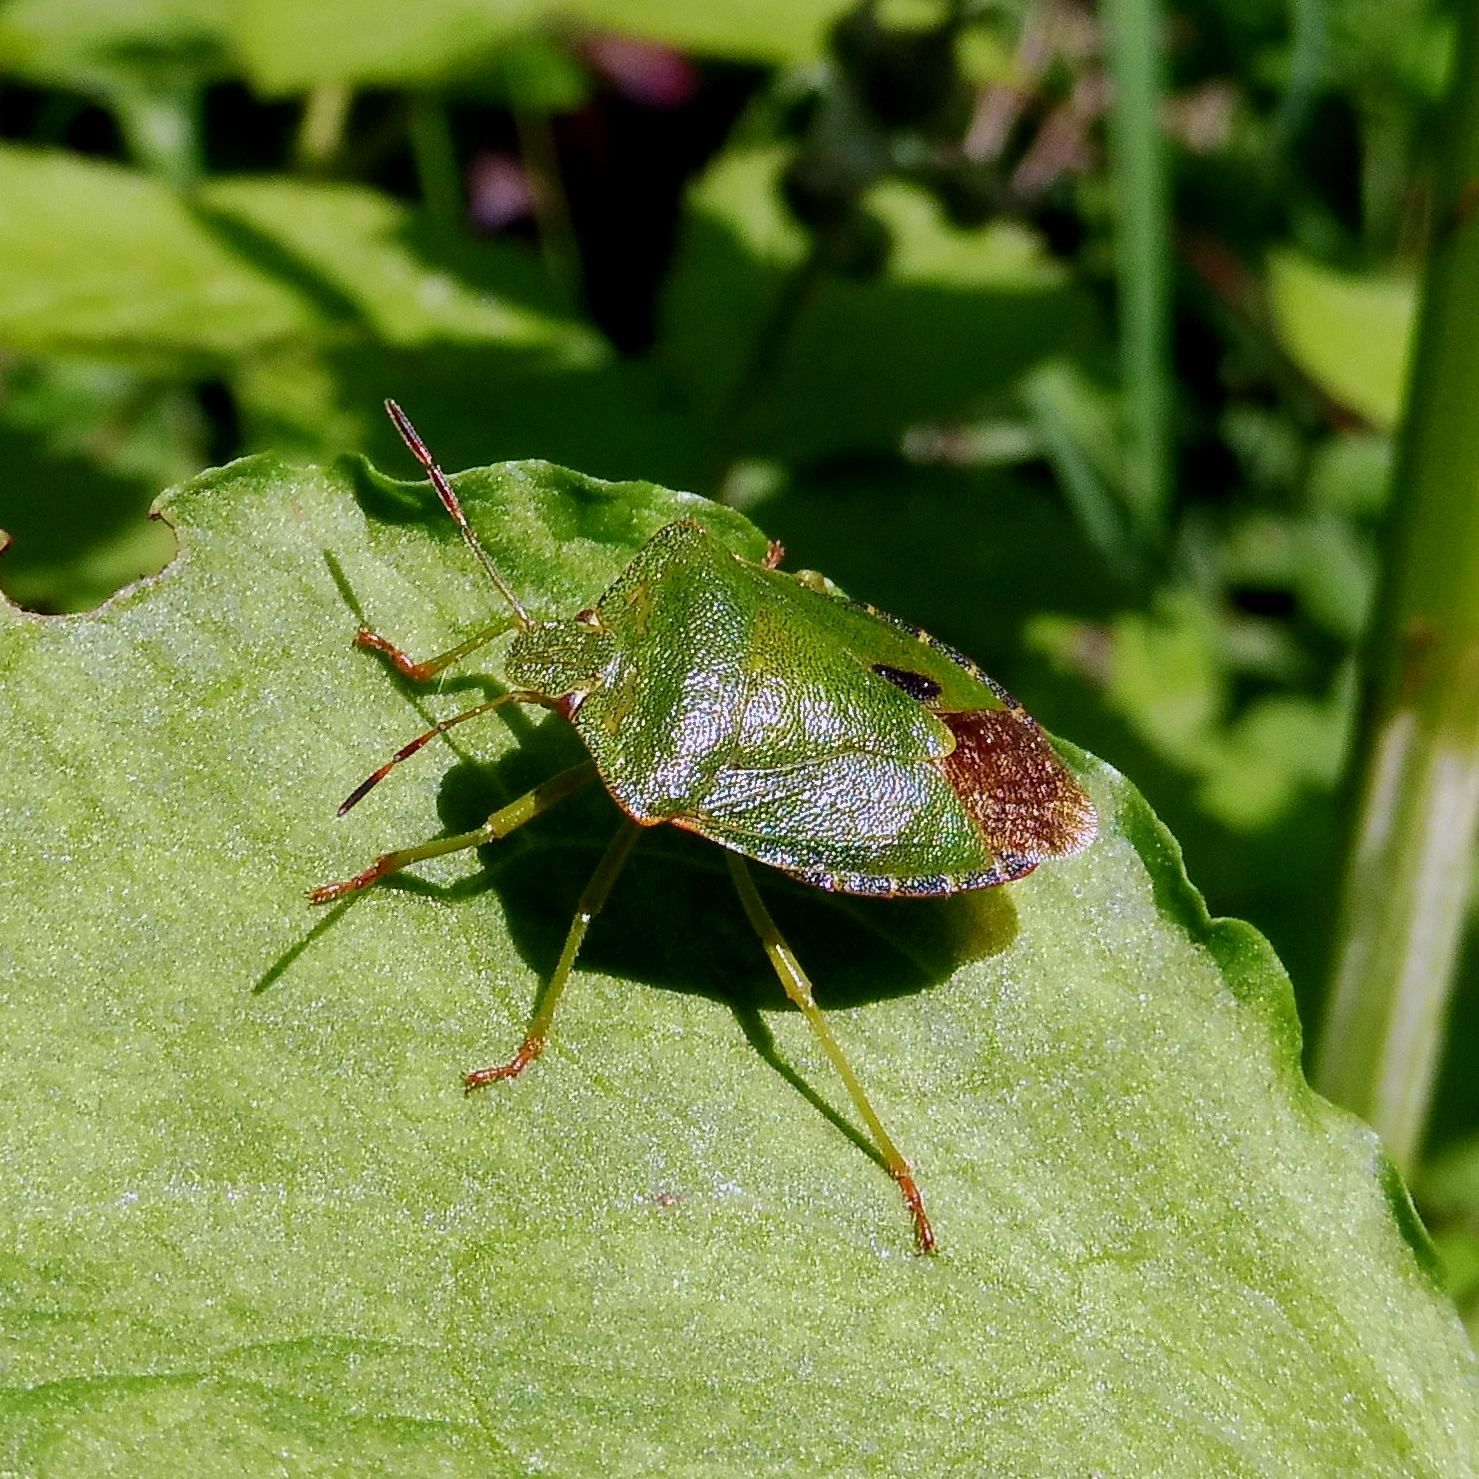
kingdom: Animalia
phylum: Arthropoda
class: Insecta
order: Hemiptera
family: Pentatomidae
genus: Palomena
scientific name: Palomena prasina
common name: Green shieldbug
